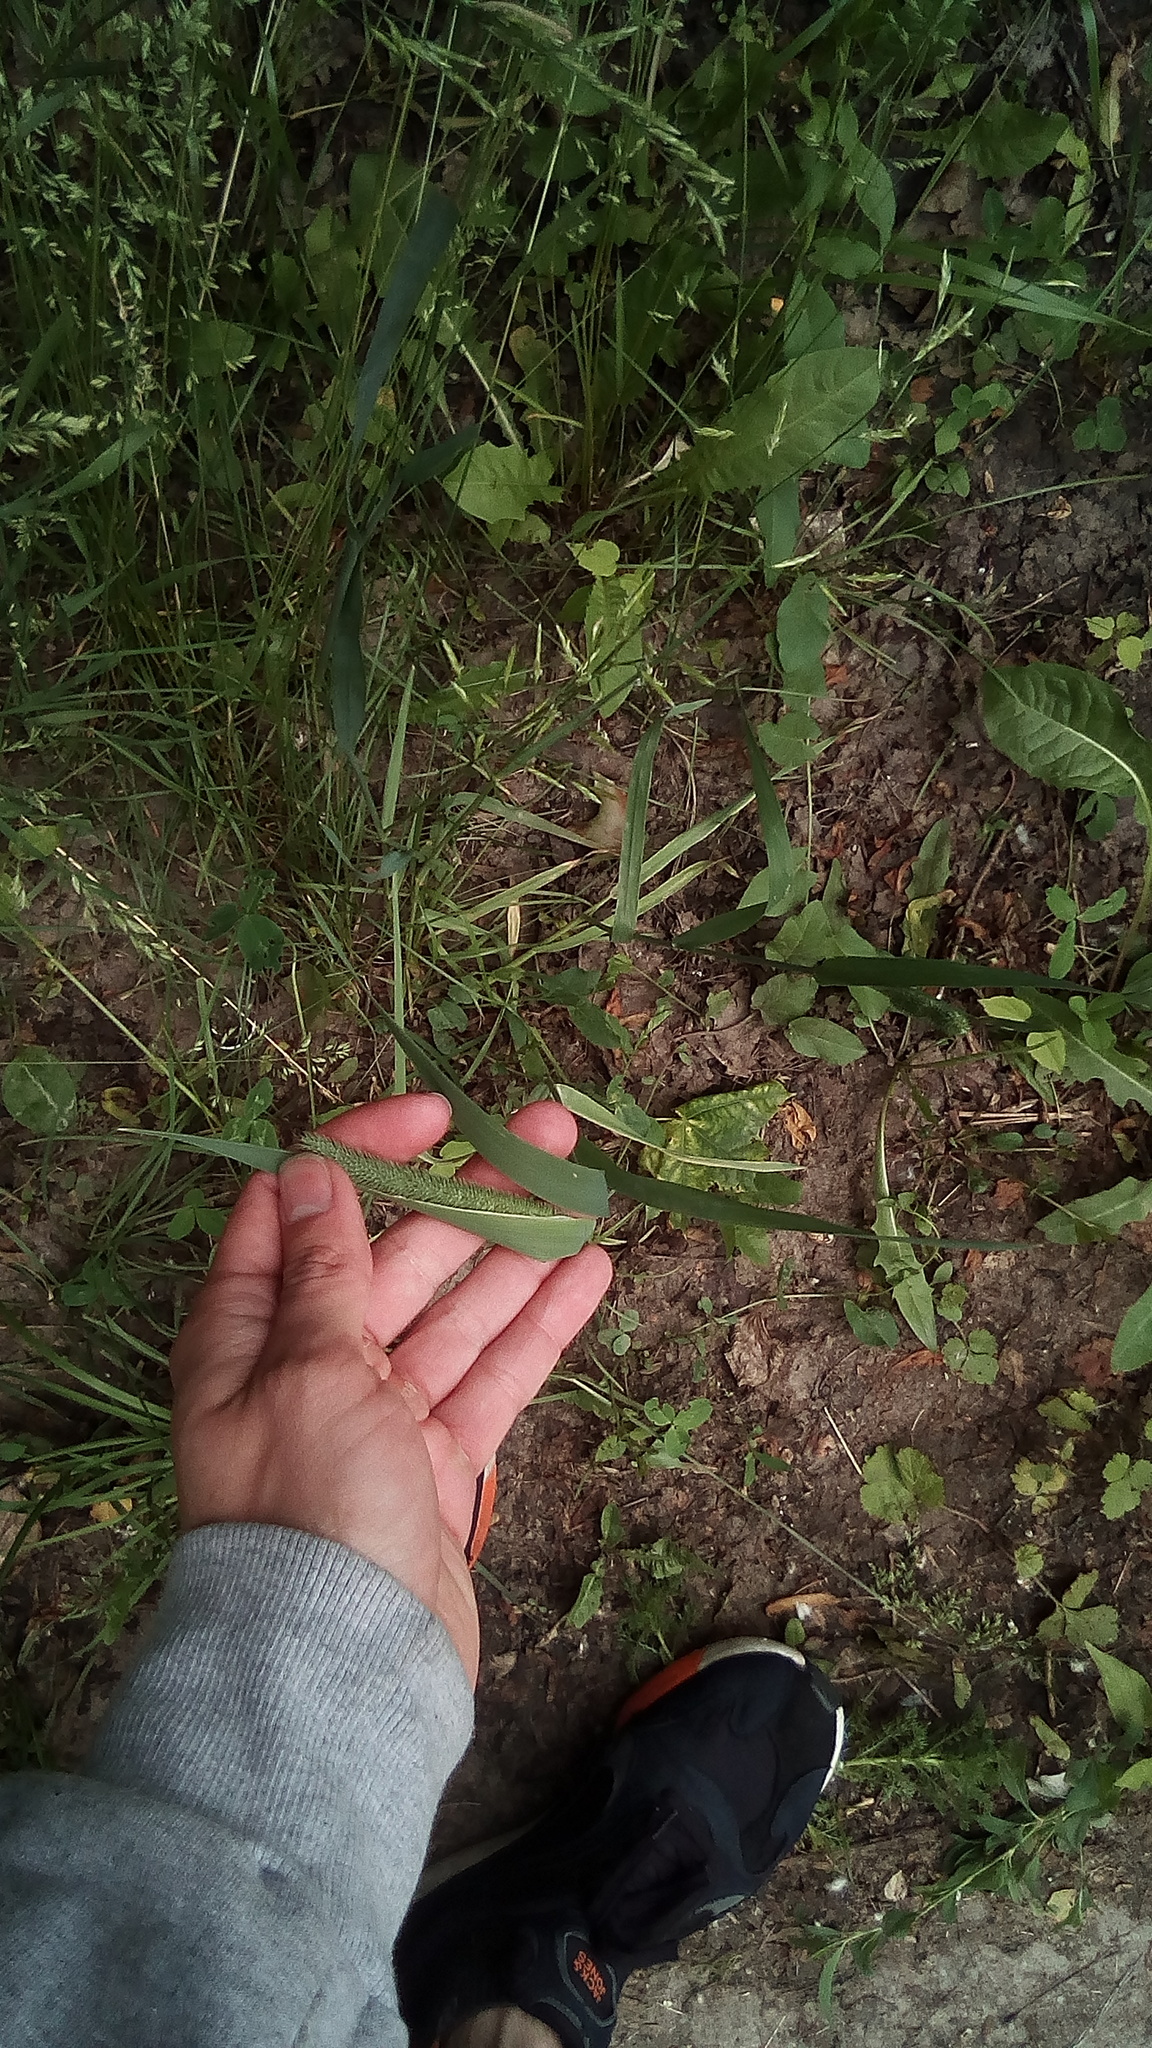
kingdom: Plantae
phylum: Tracheophyta
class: Liliopsida
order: Poales
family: Poaceae
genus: Phleum
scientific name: Phleum pratense
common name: Timothy grass
